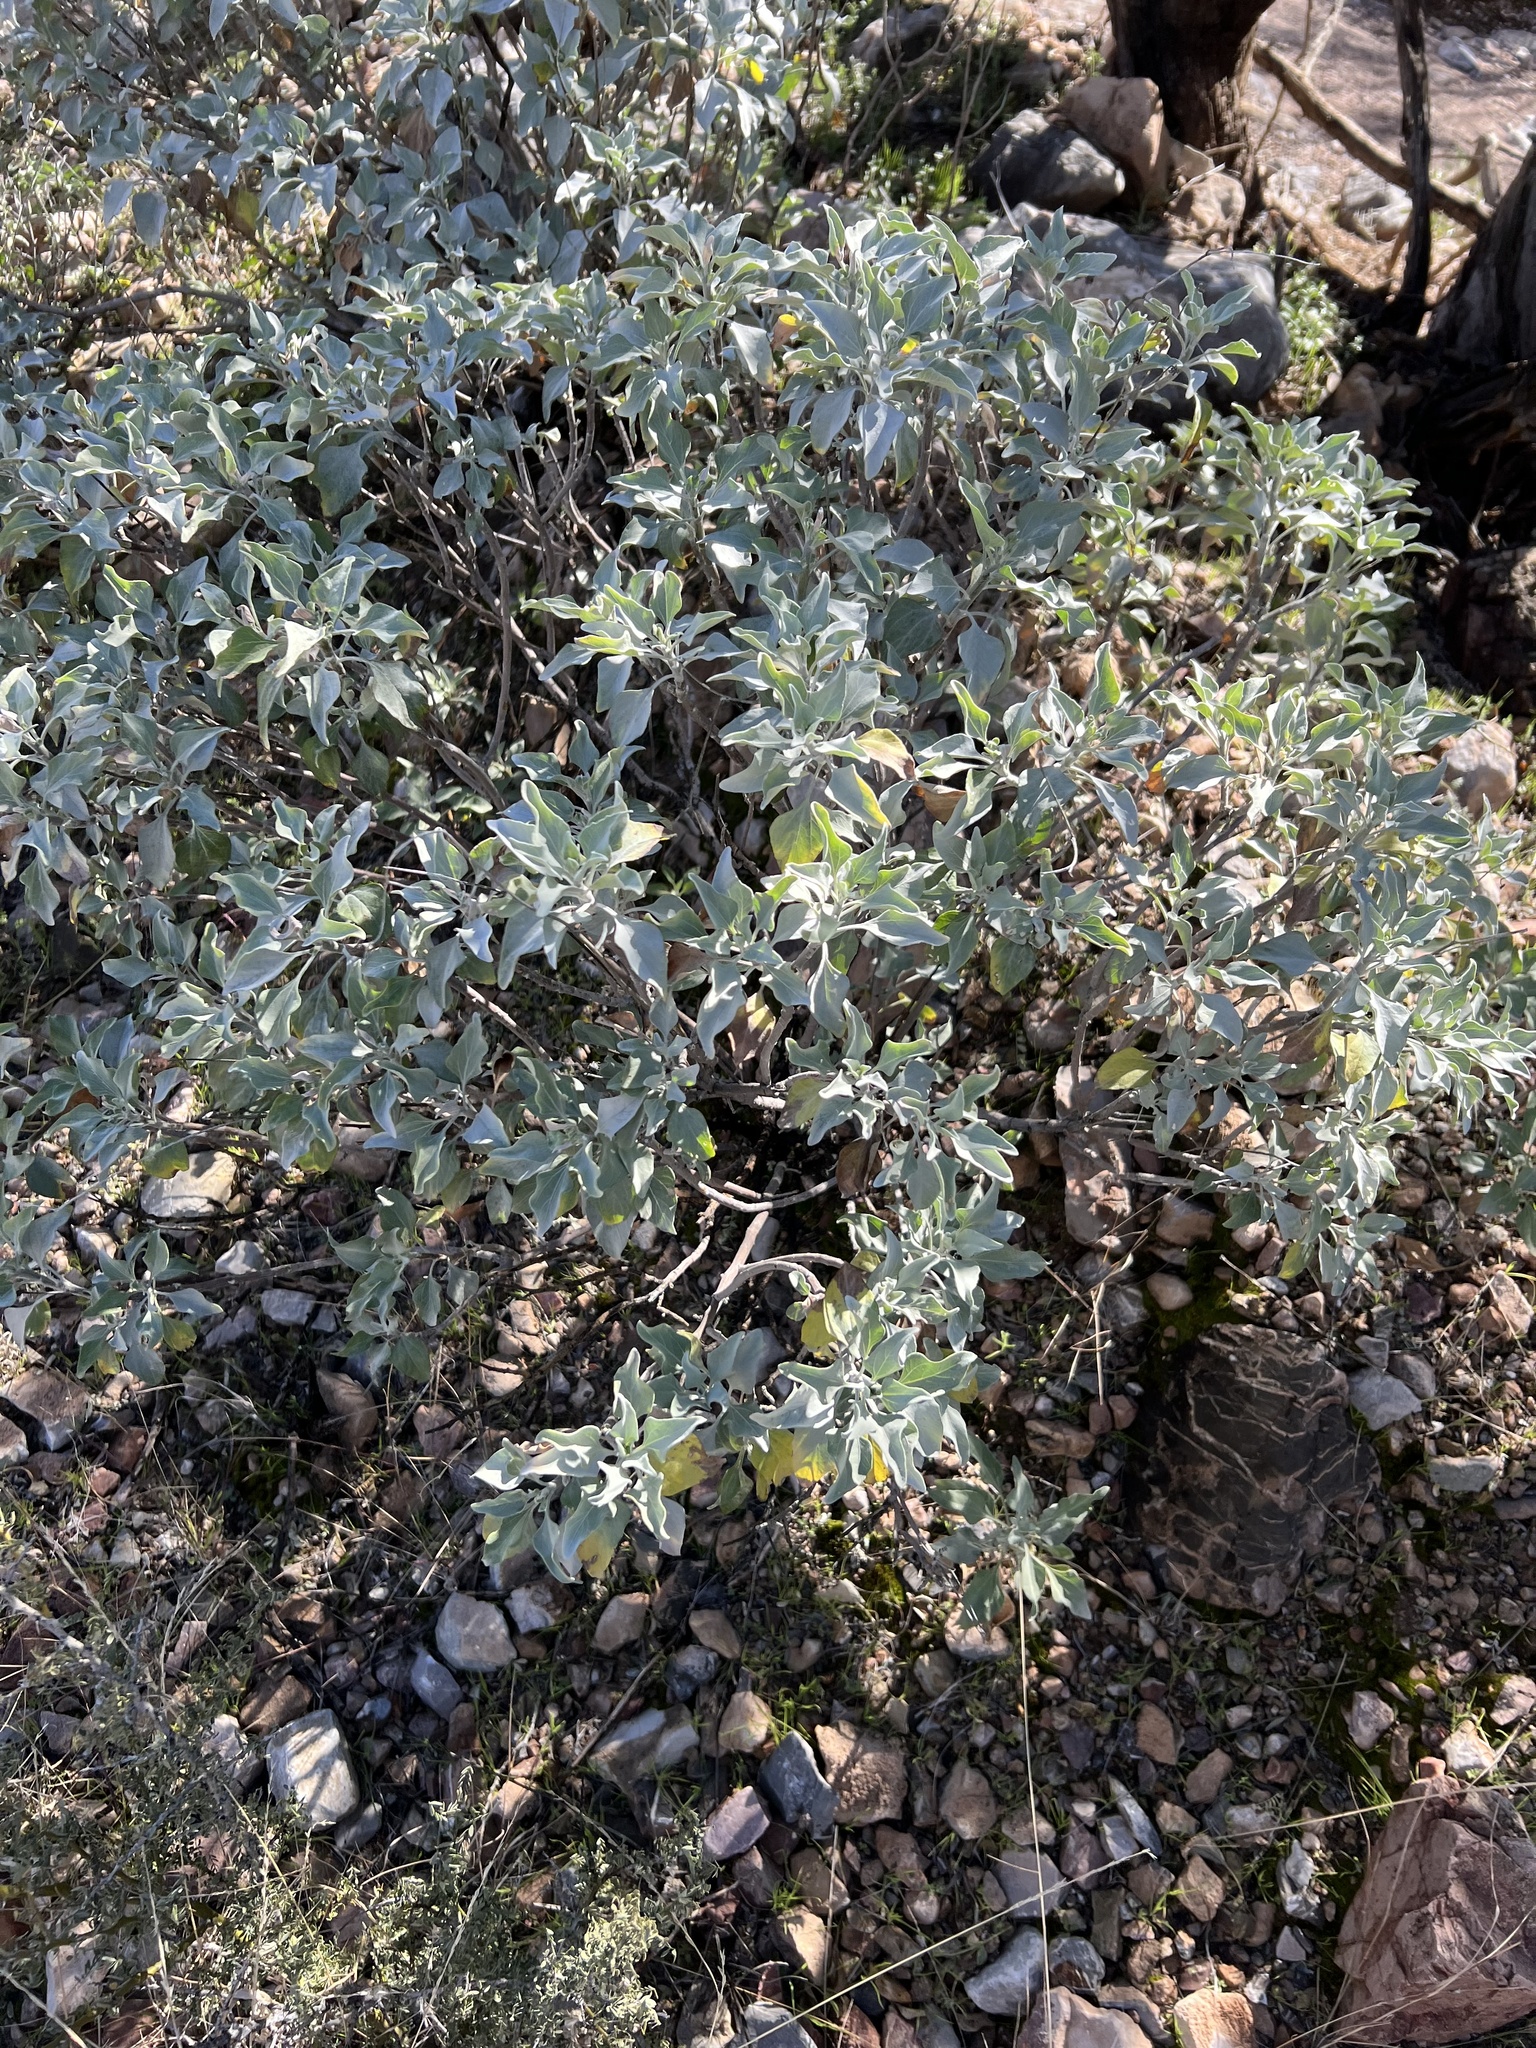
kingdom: Plantae
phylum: Tracheophyta
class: Magnoliopsida
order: Asterales
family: Asteraceae
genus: Encelia
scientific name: Encelia farinosa
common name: Brittlebush
